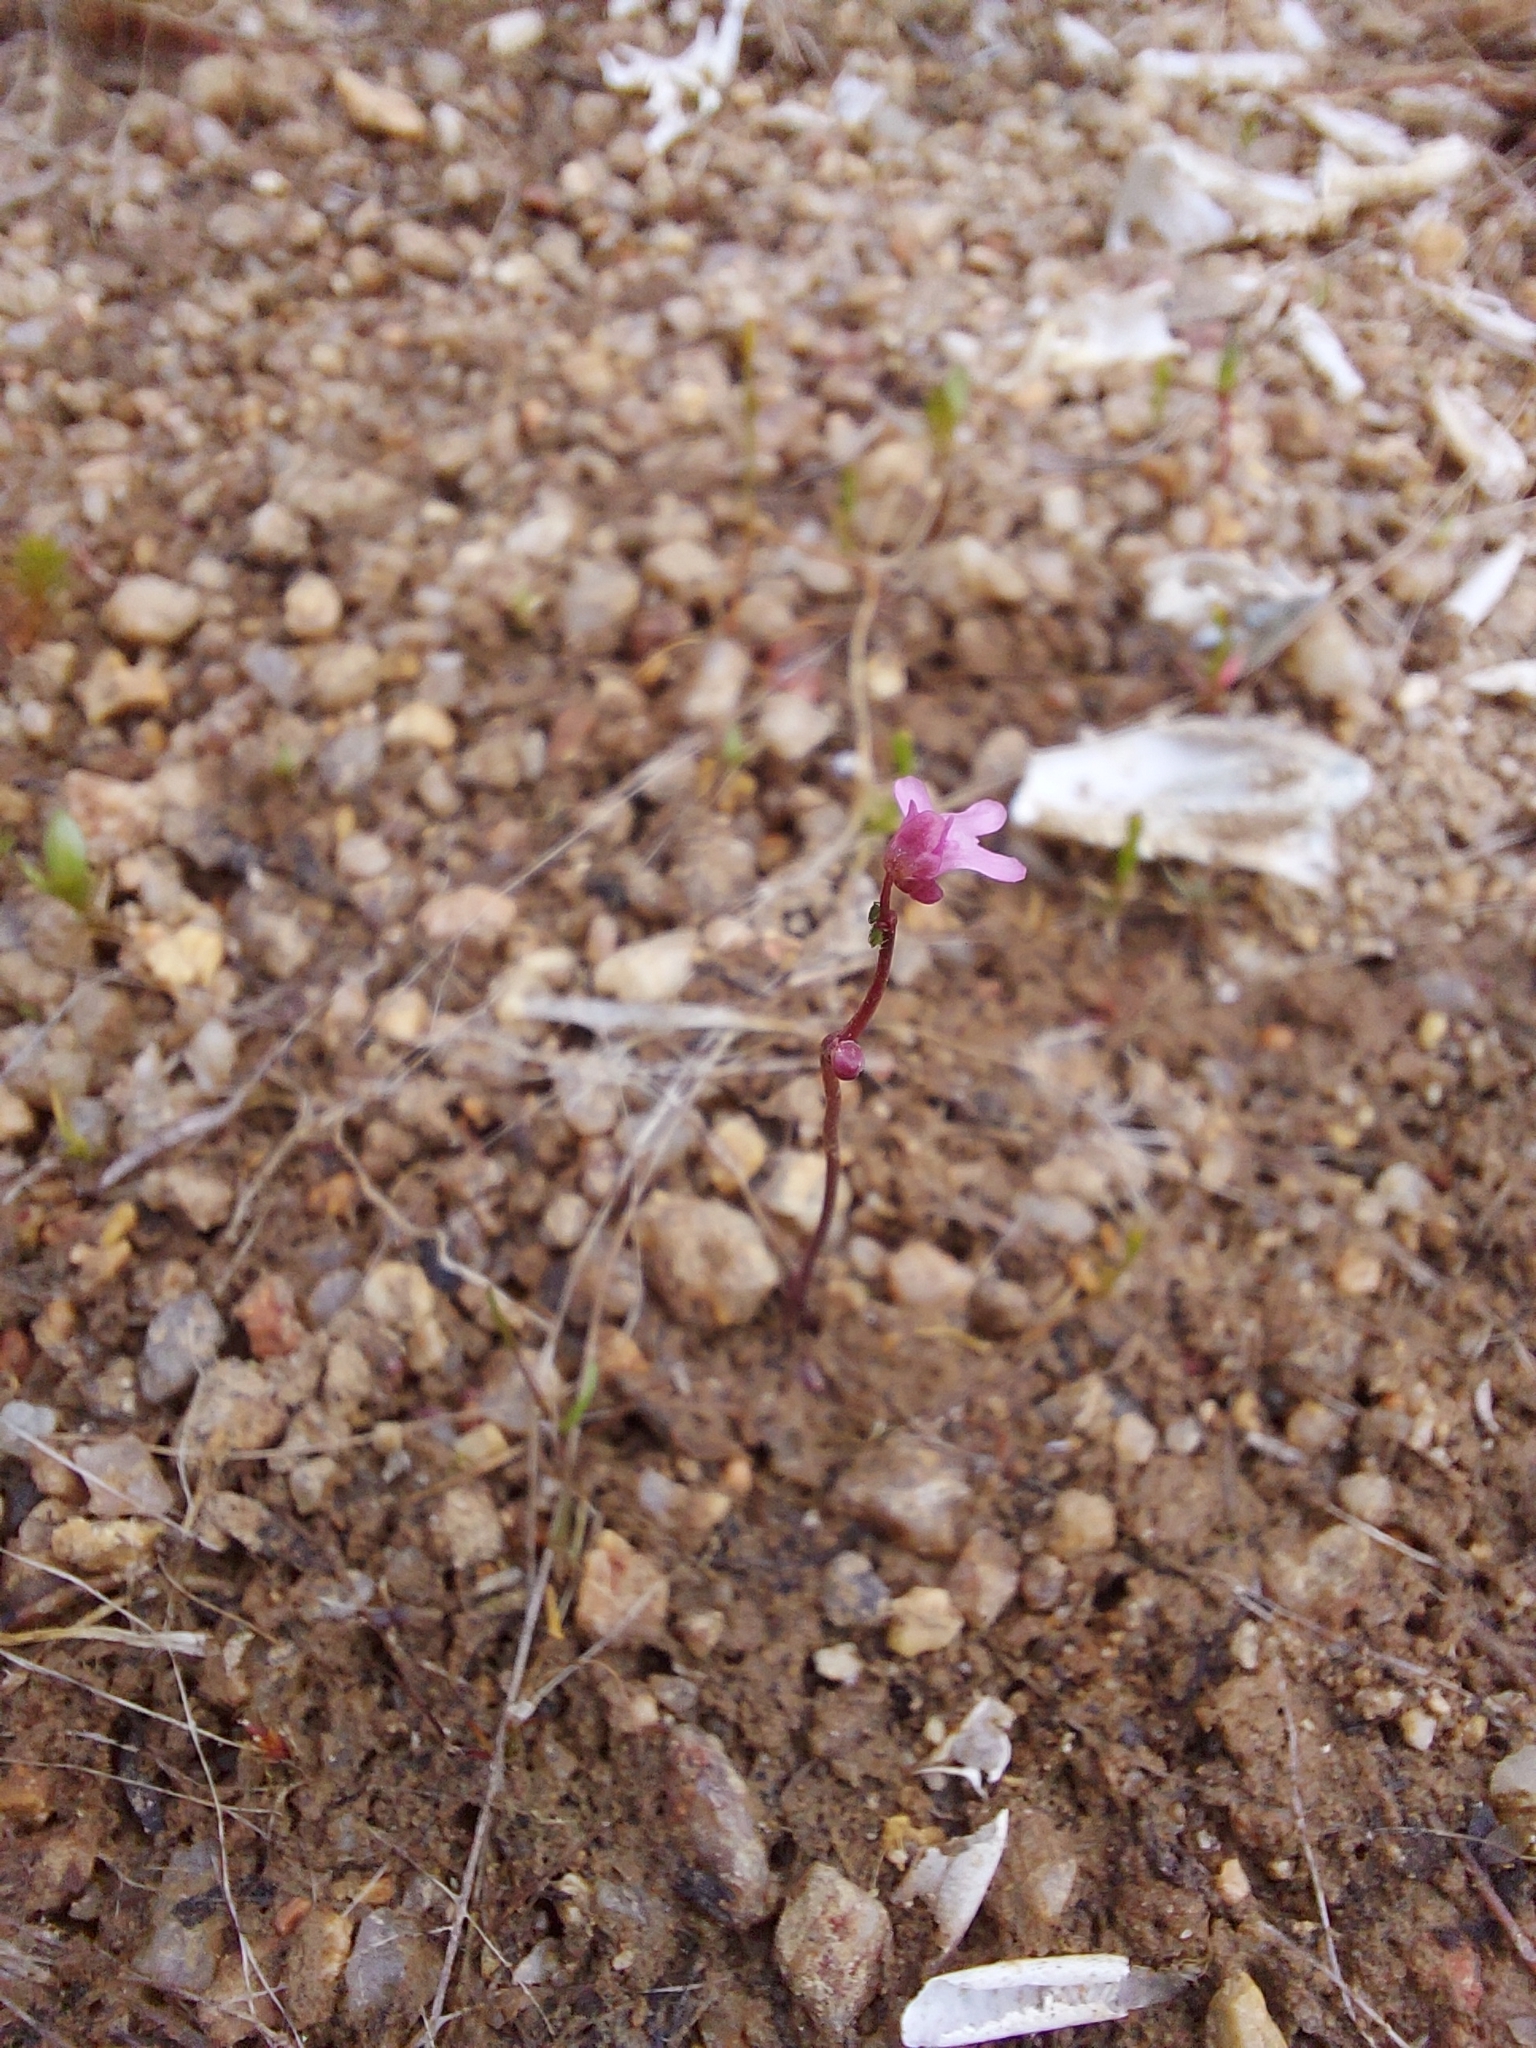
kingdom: Plantae
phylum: Tracheophyta
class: Magnoliopsida
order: Lamiales
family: Lentibulariaceae
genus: Utricularia
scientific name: Utricularia tenella
